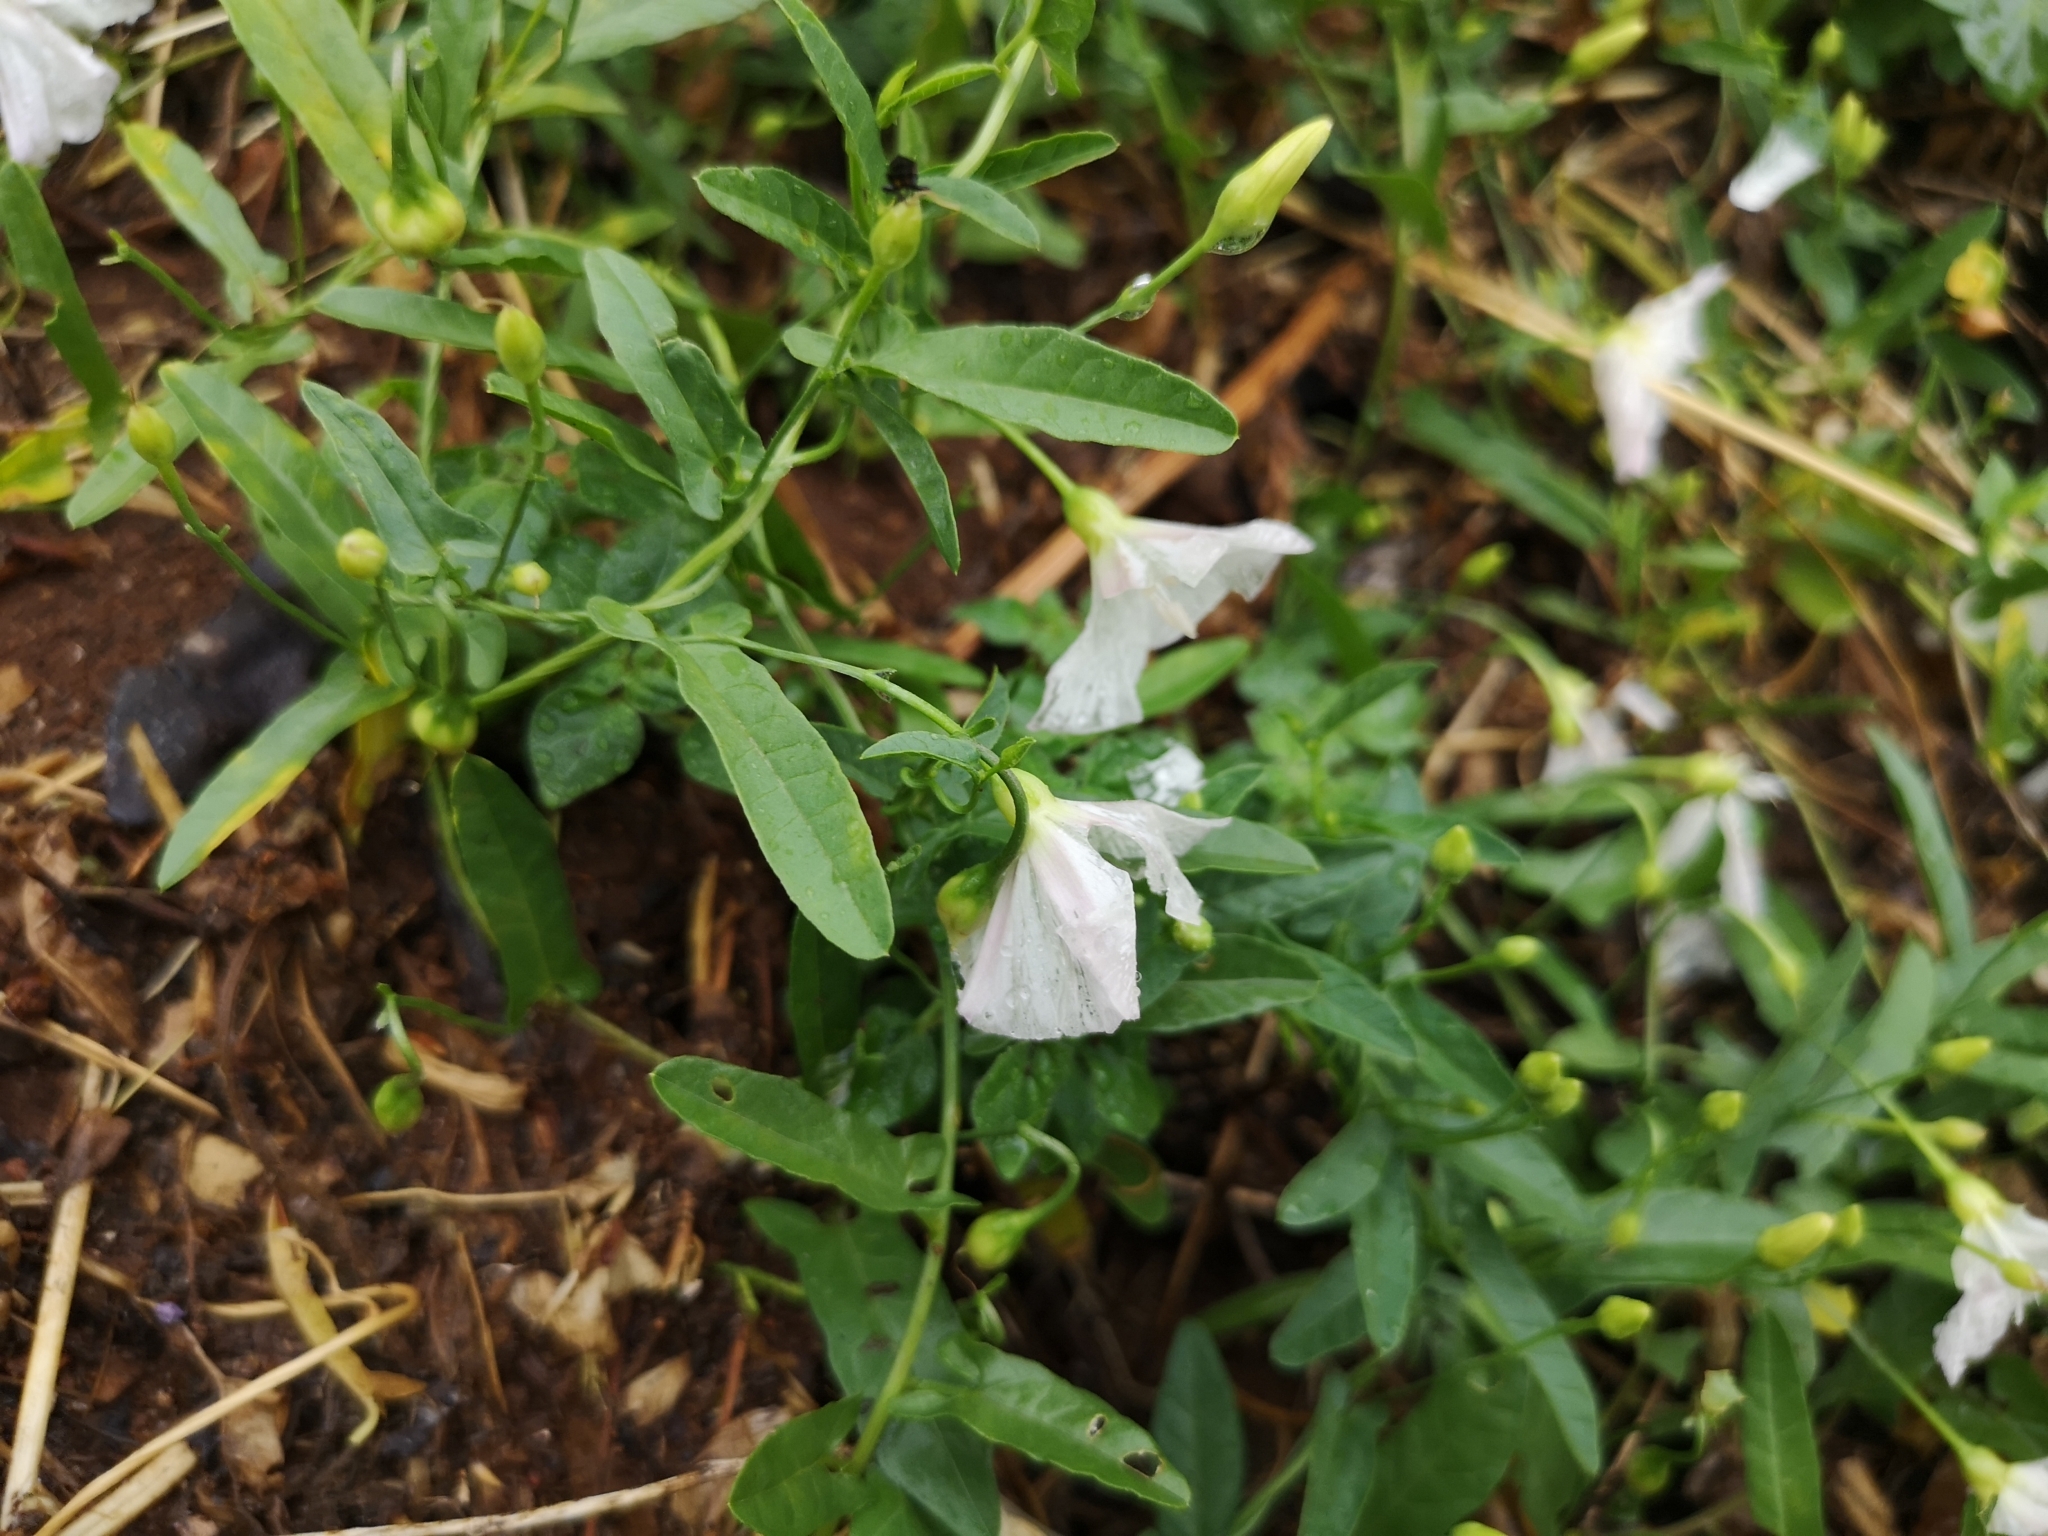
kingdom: Plantae
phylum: Tracheophyta
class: Magnoliopsida
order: Solanales
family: Convolvulaceae
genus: Convolvulus
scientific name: Convolvulus arvensis
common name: Field bindweed
